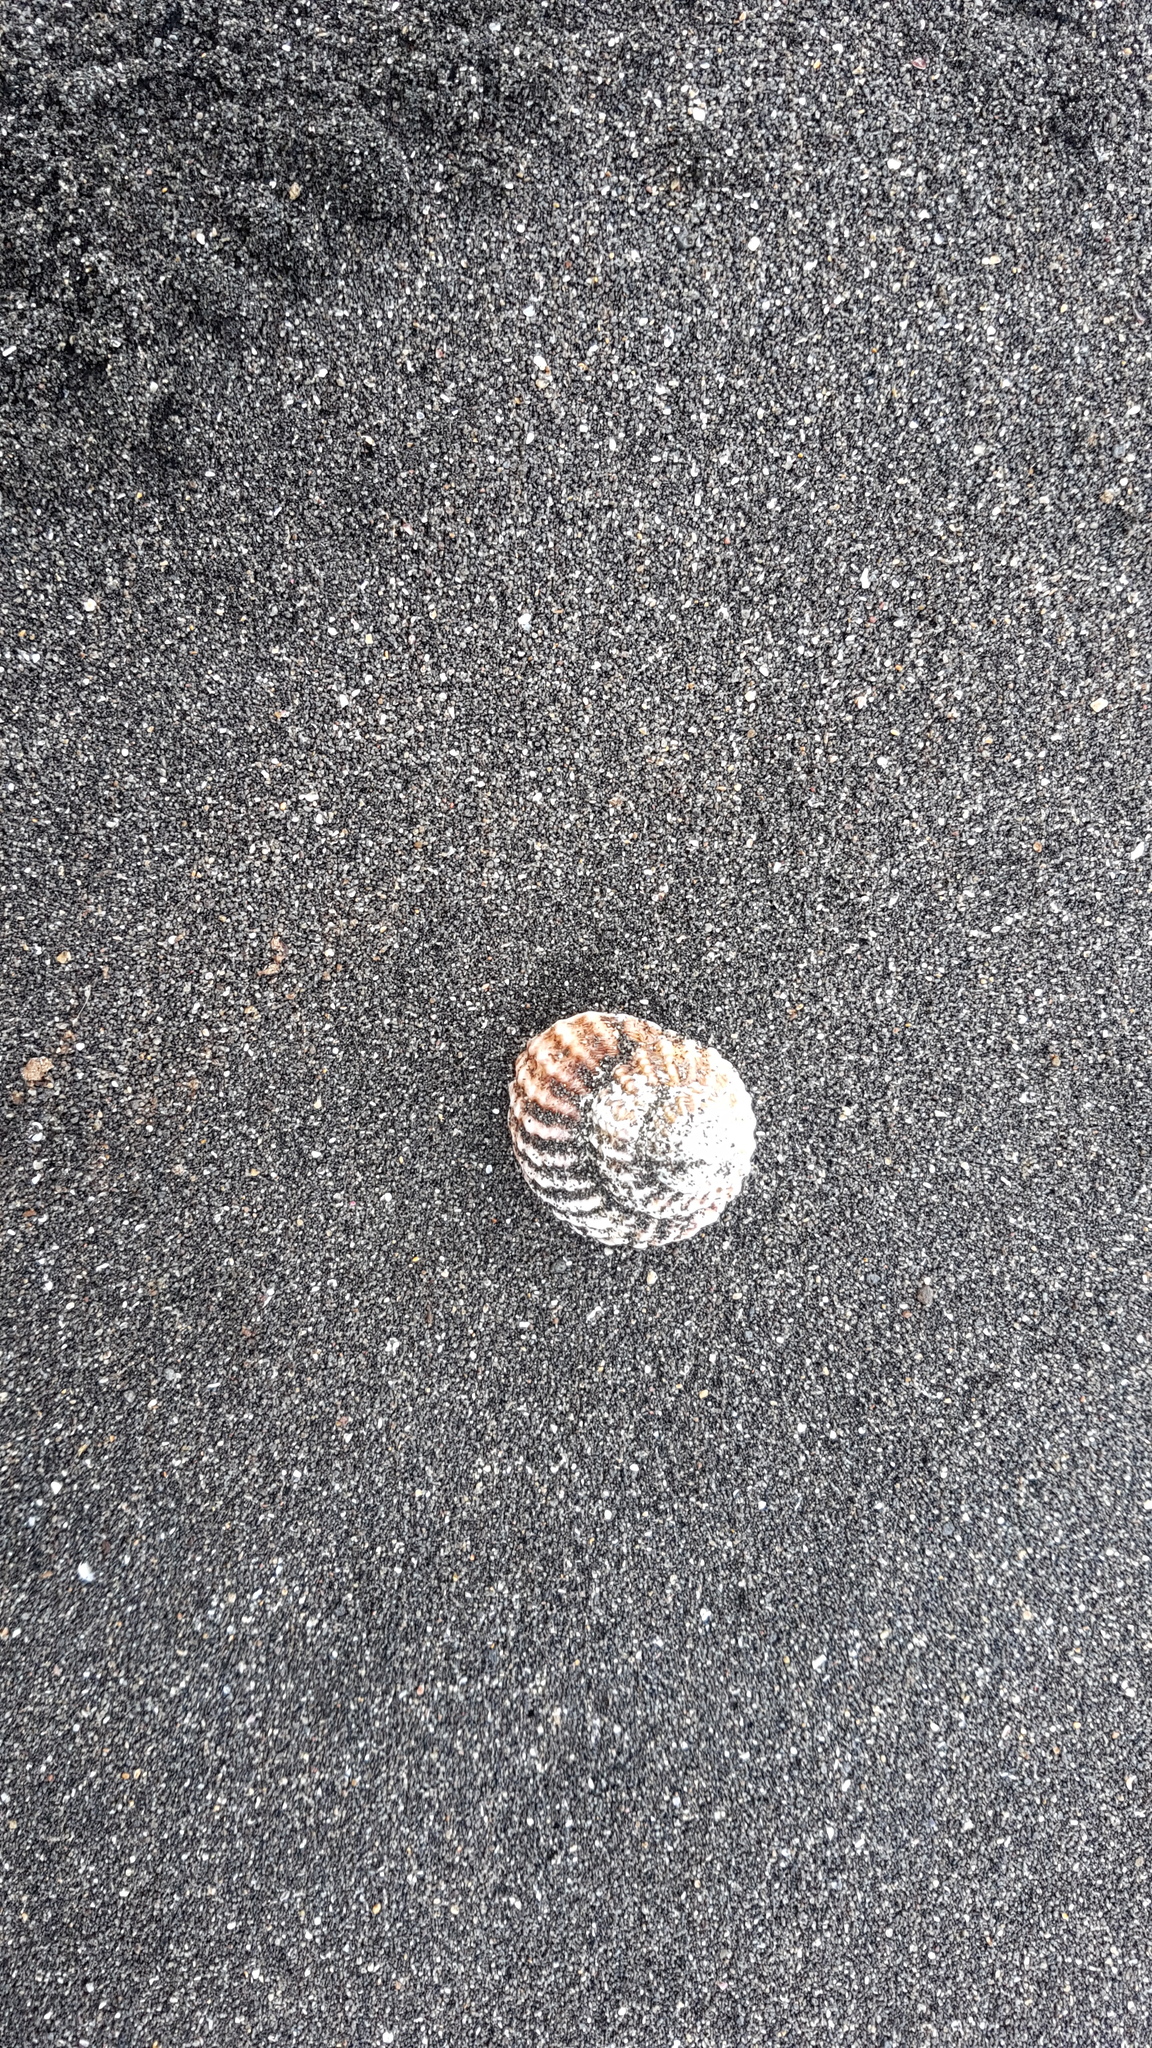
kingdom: Animalia
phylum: Mollusca
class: Gastropoda
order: Trochida
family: Turbinidae
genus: Cookia
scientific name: Cookia sulcata
